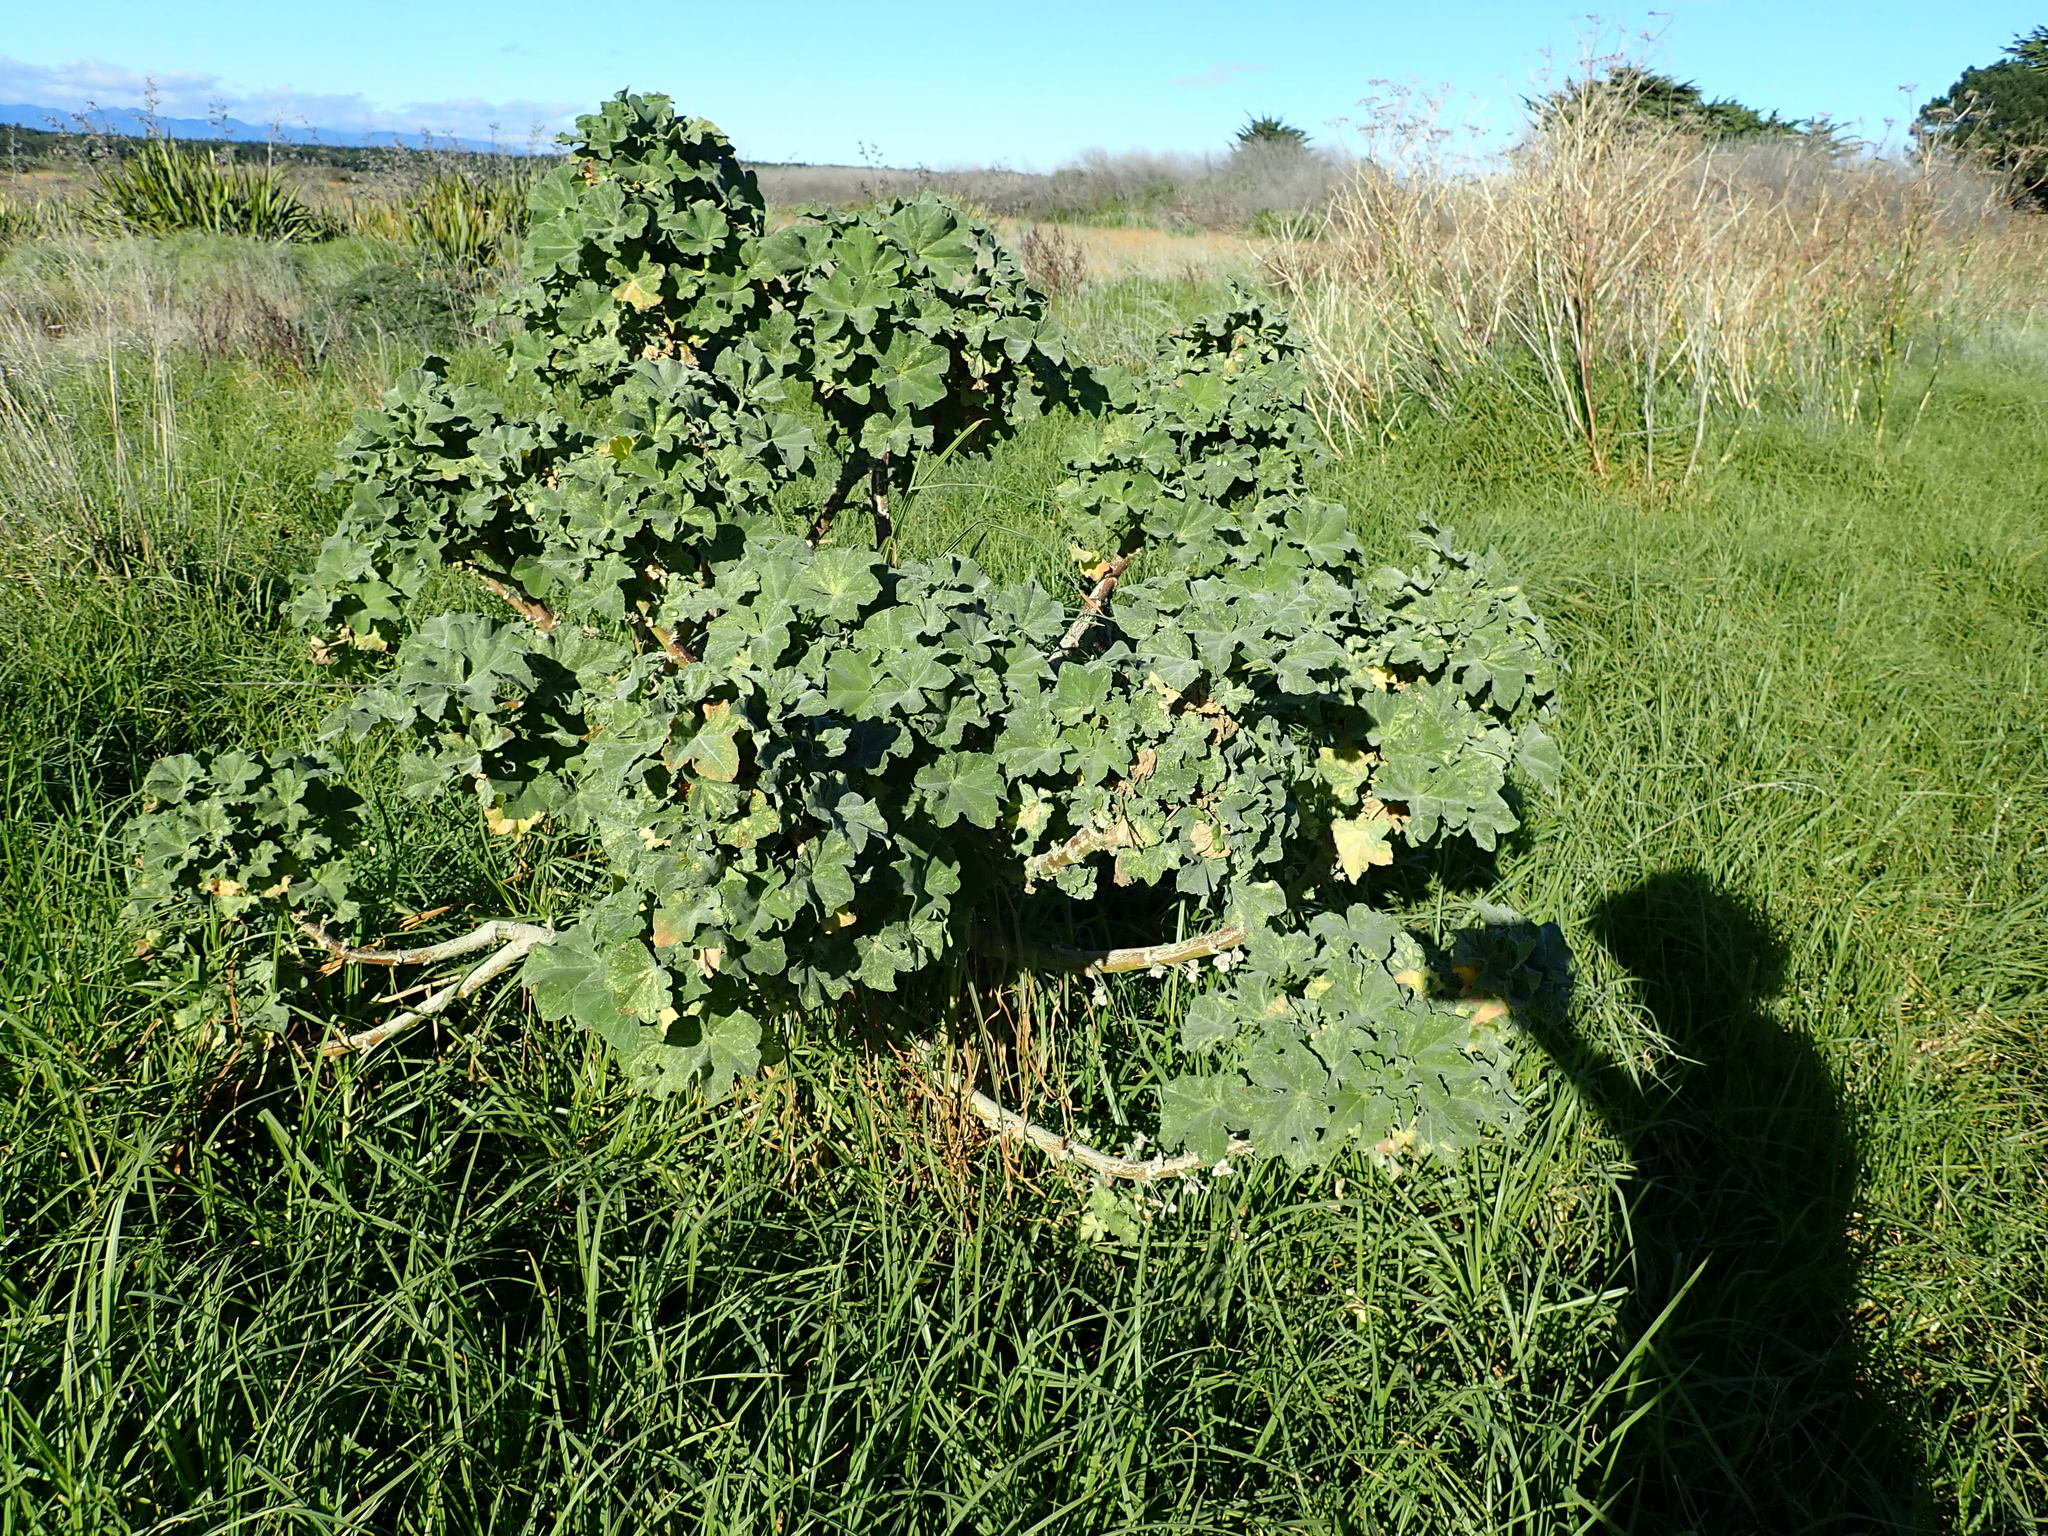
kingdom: Plantae
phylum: Tracheophyta
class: Magnoliopsida
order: Malvales
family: Malvaceae
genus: Malva
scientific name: Malva arborea
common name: Tree mallow
